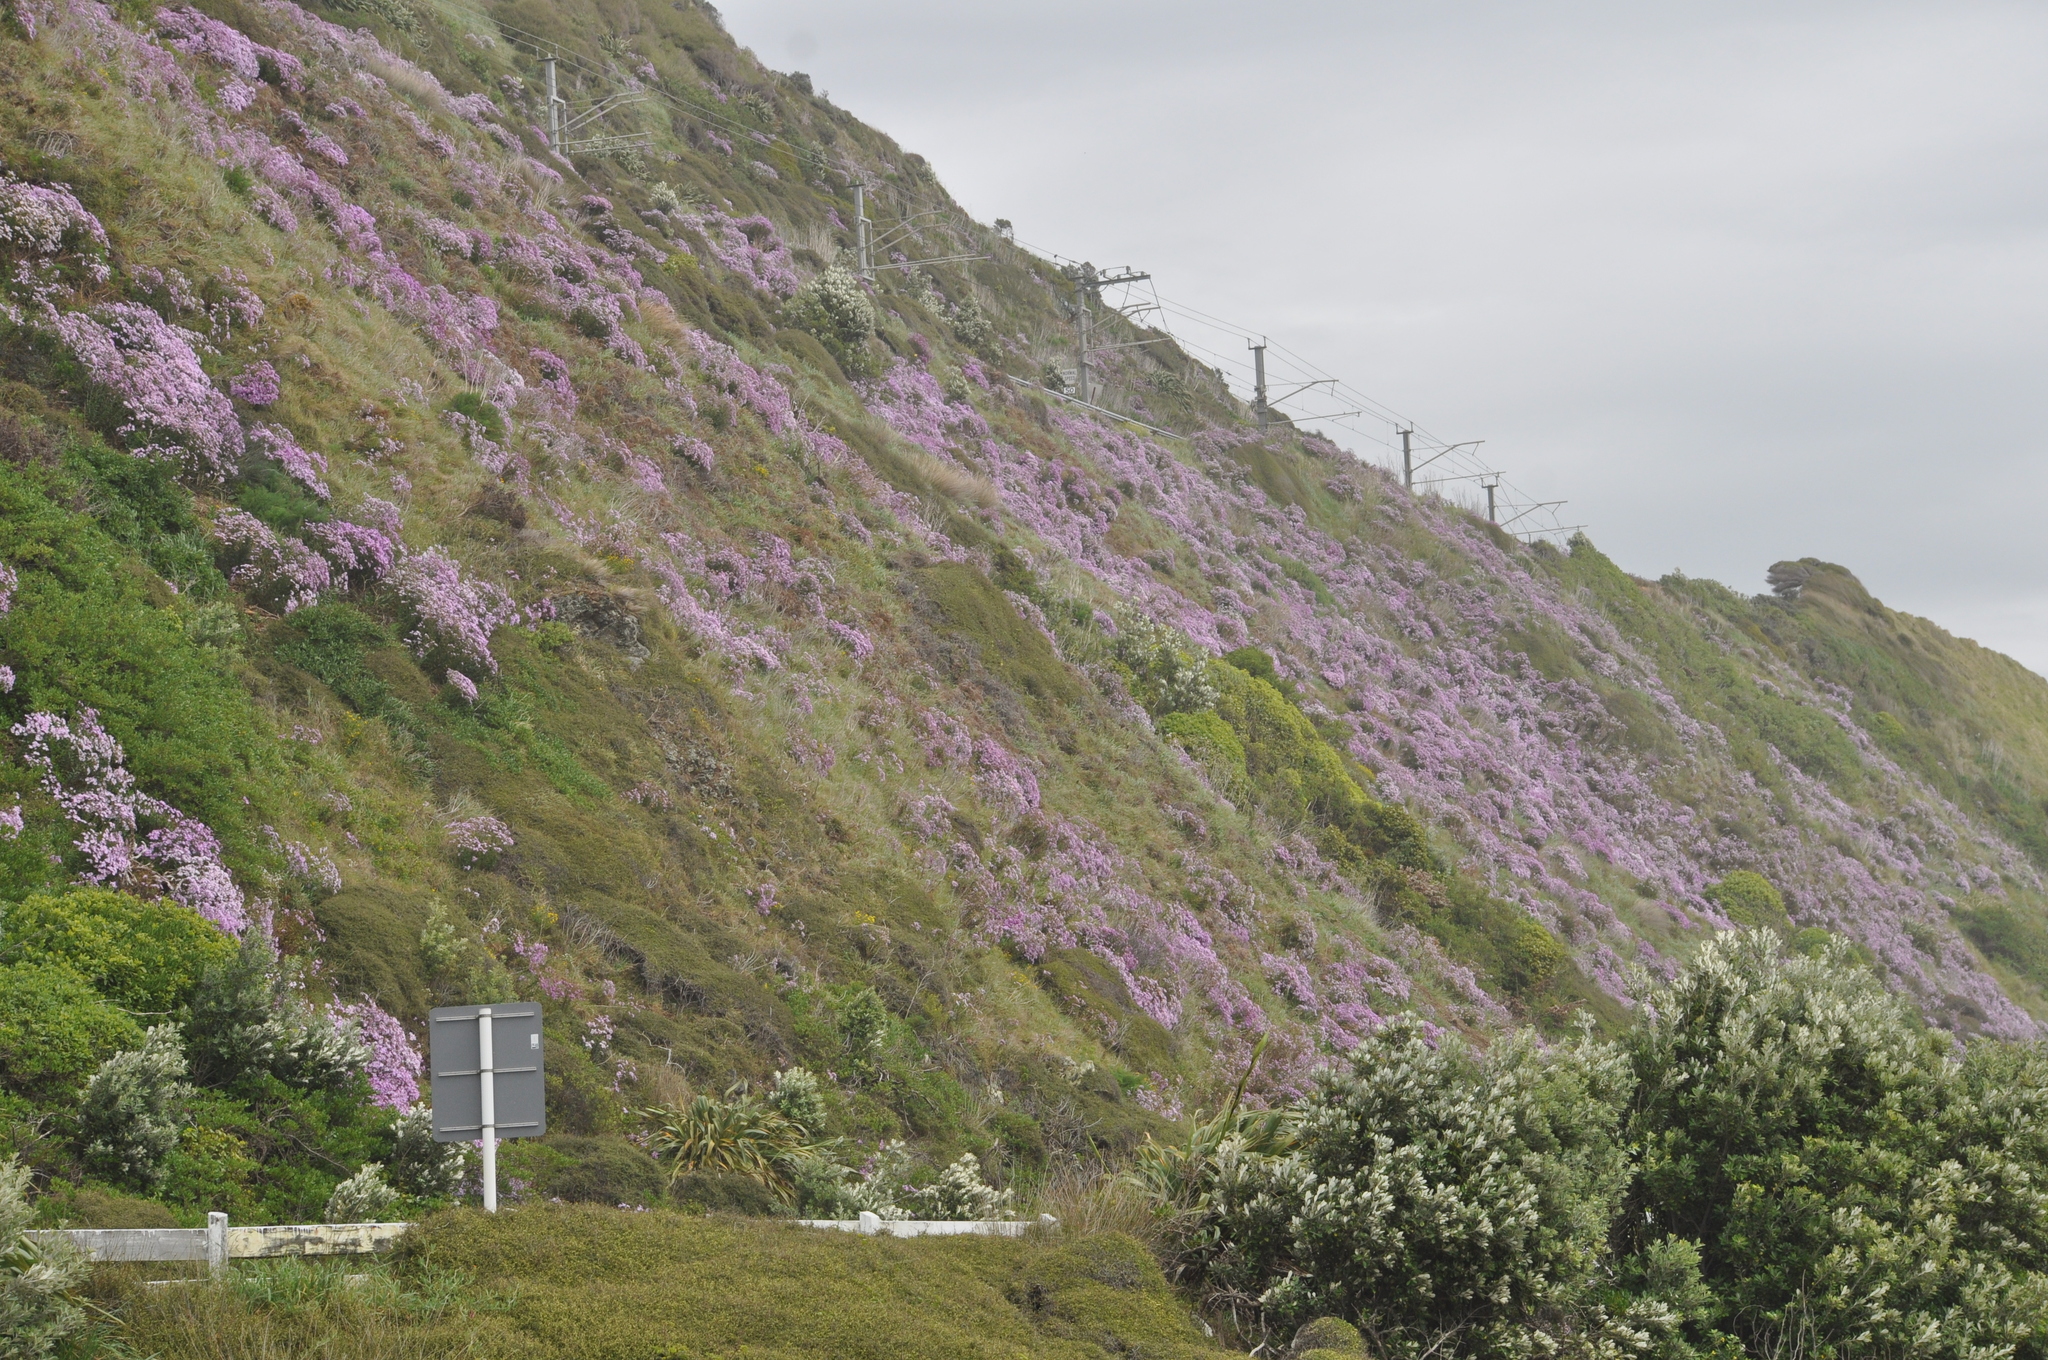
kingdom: Plantae
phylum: Tracheophyta
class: Magnoliopsida
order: Asterales
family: Asteraceae
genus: Senecio
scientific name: Senecio glastifolius
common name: Woad-leaved ragwort
